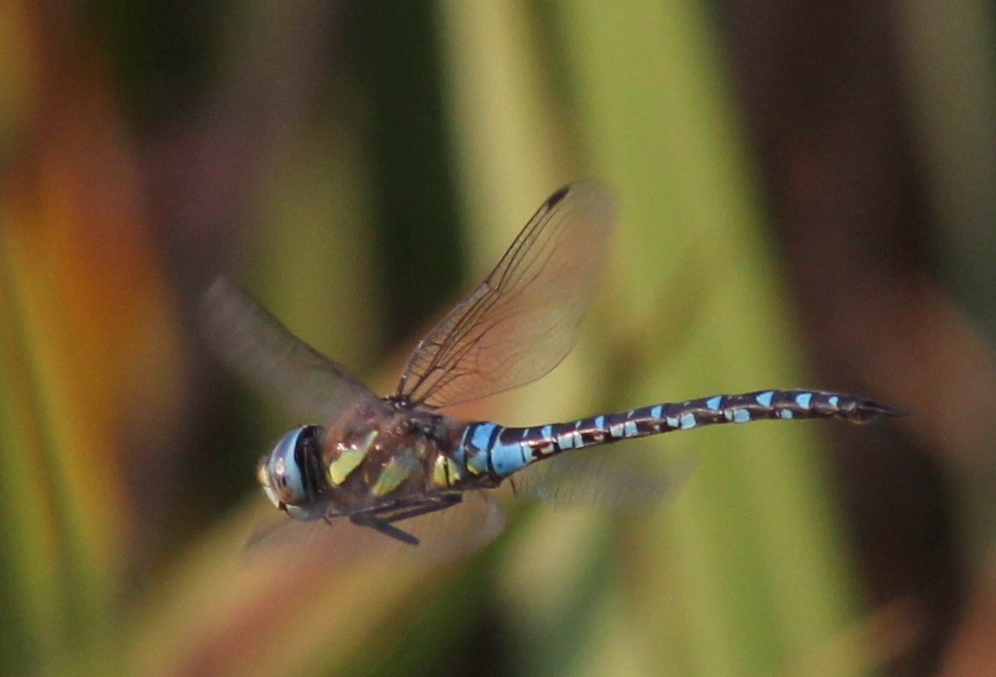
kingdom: Animalia
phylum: Arthropoda
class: Insecta
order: Odonata
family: Aeshnidae
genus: Aeshna
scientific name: Aeshna mixta
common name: Migrant hawker
